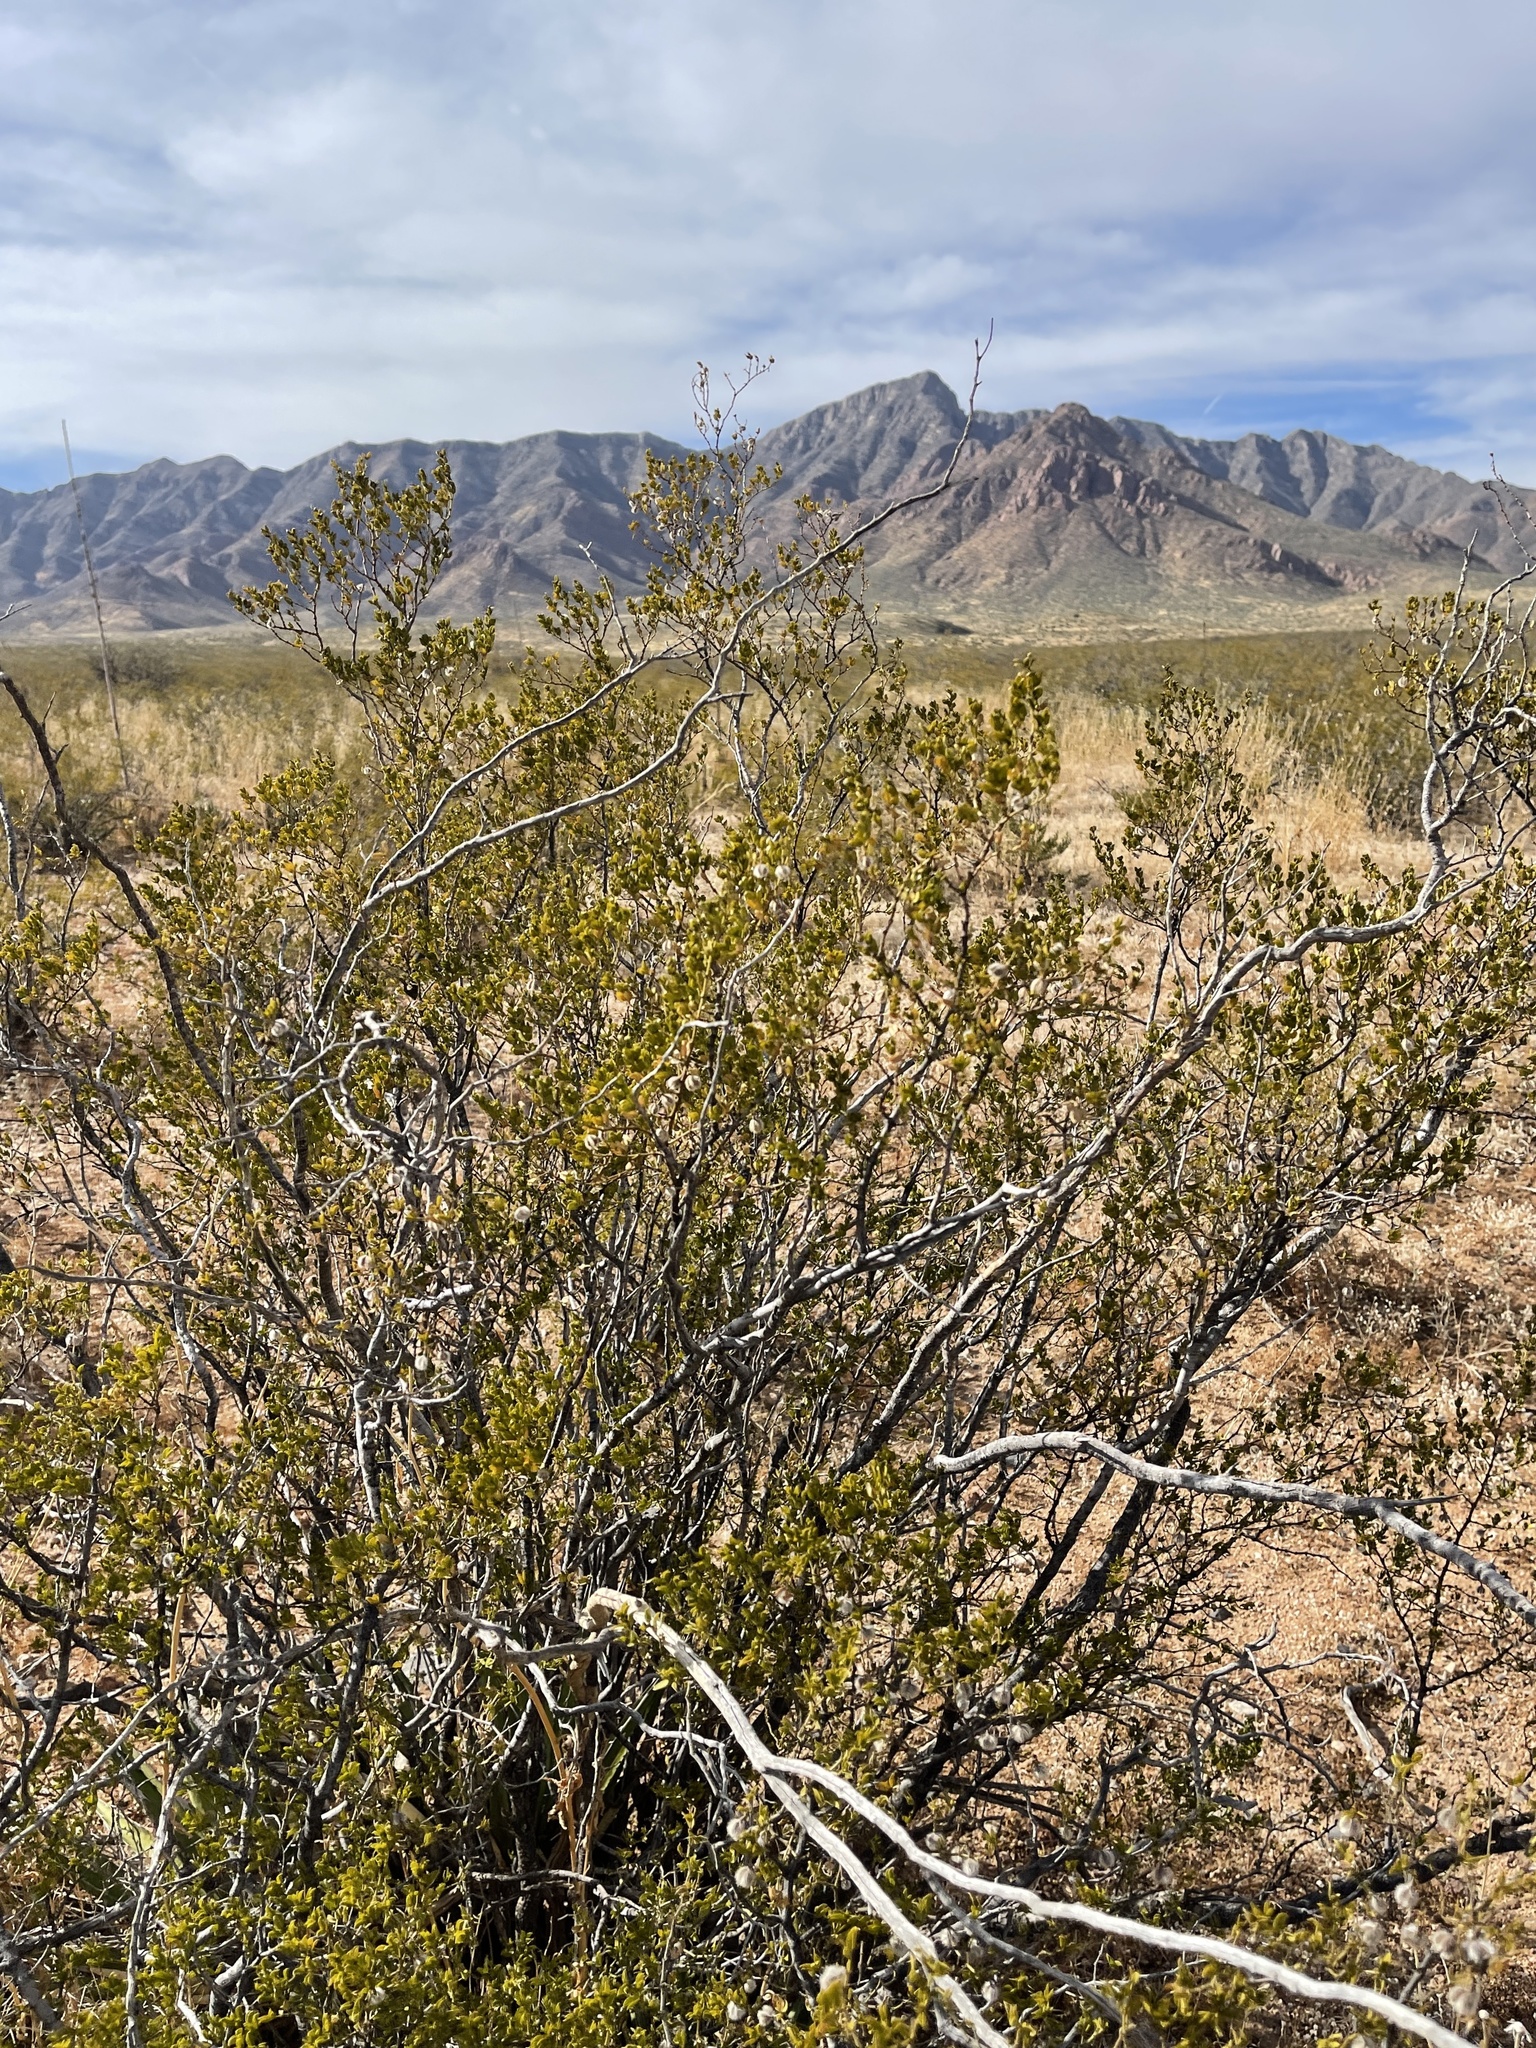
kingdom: Plantae
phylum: Tracheophyta
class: Magnoliopsida
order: Zygophyllales
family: Zygophyllaceae
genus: Larrea
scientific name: Larrea tridentata
